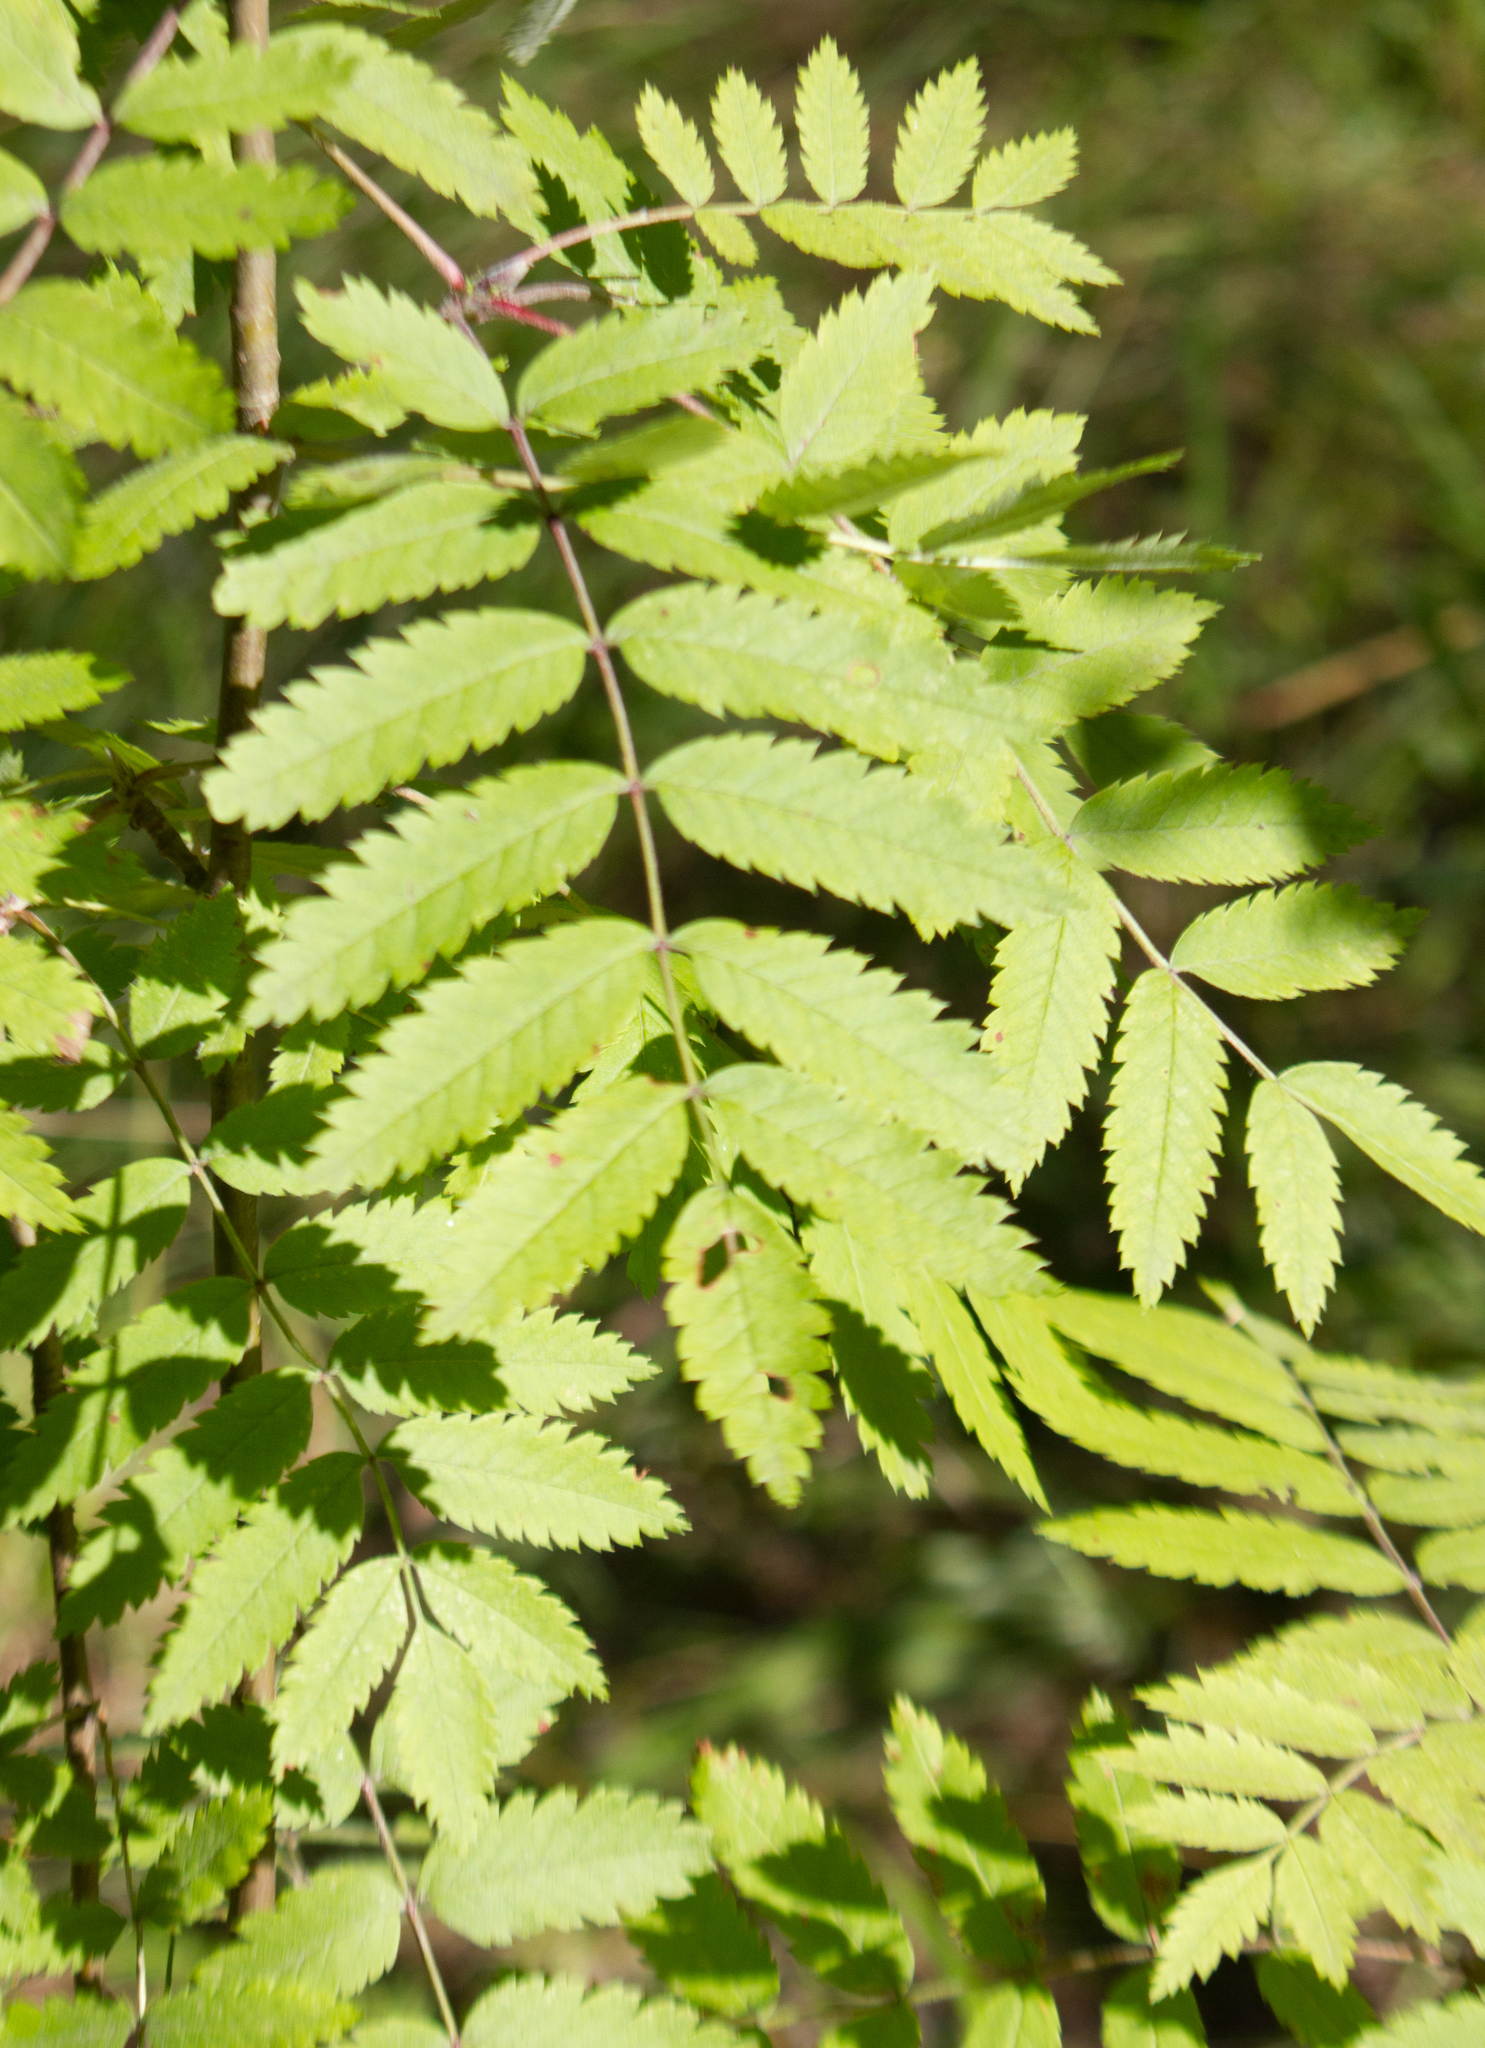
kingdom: Plantae
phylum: Tracheophyta
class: Magnoliopsida
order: Rosales
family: Rosaceae
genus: Sorbus
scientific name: Sorbus aucuparia
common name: Rowan
